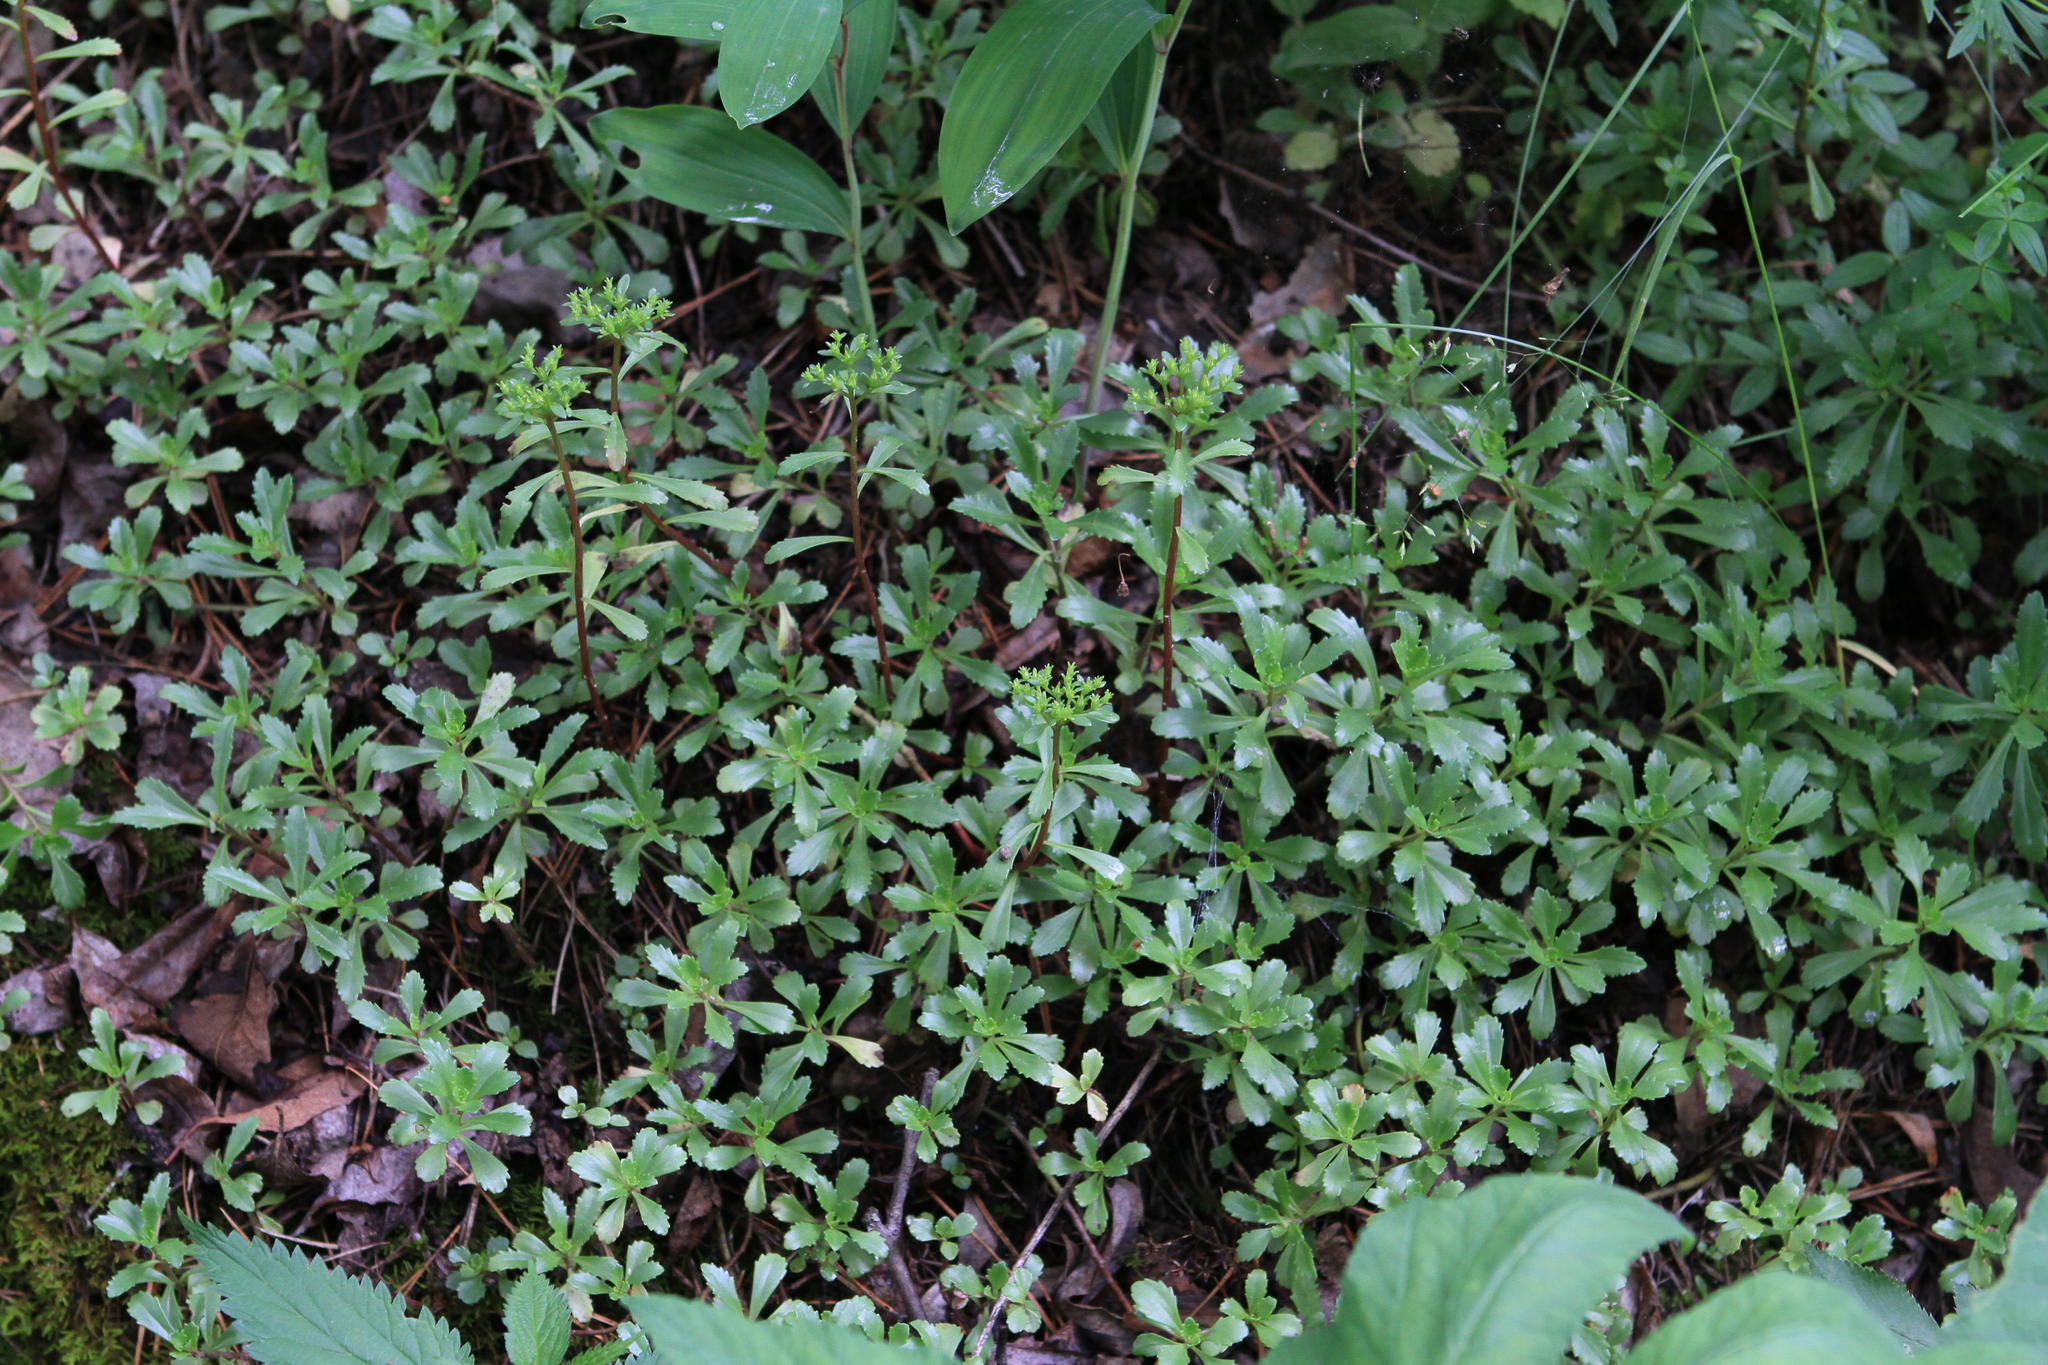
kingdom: Plantae
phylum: Tracheophyta
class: Magnoliopsida
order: Saxifragales
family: Crassulaceae
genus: Phedimus
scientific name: Phedimus hybridus
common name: Hybrid stonecrop
